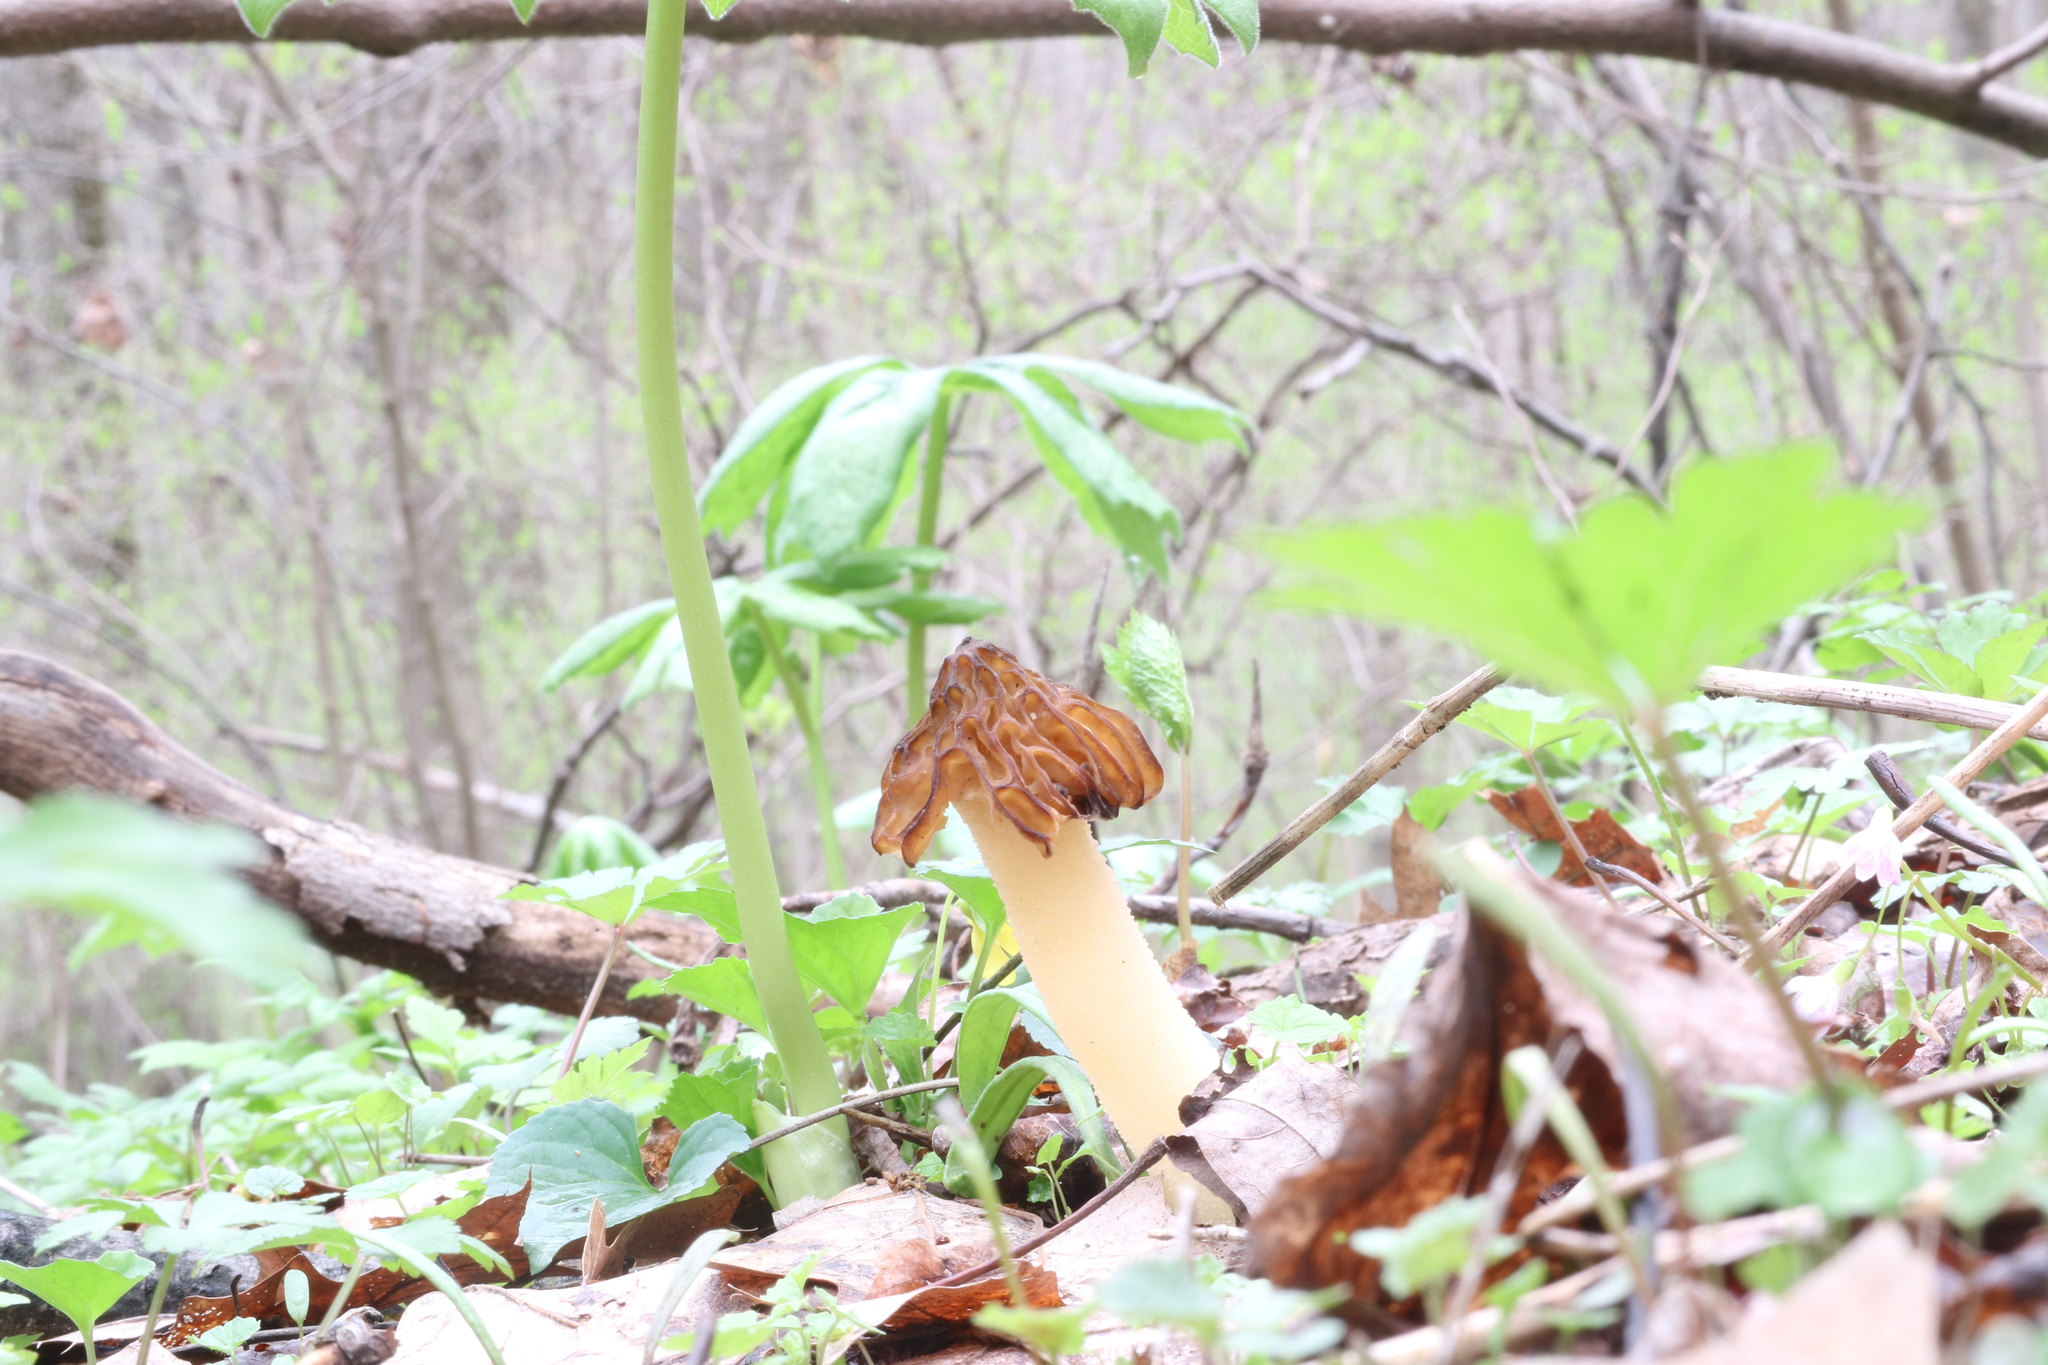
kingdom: Fungi
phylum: Ascomycota
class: Pezizomycetes
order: Pezizales
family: Morchellaceae
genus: Morchella
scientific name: Morchella punctipes
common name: Half-free morel
